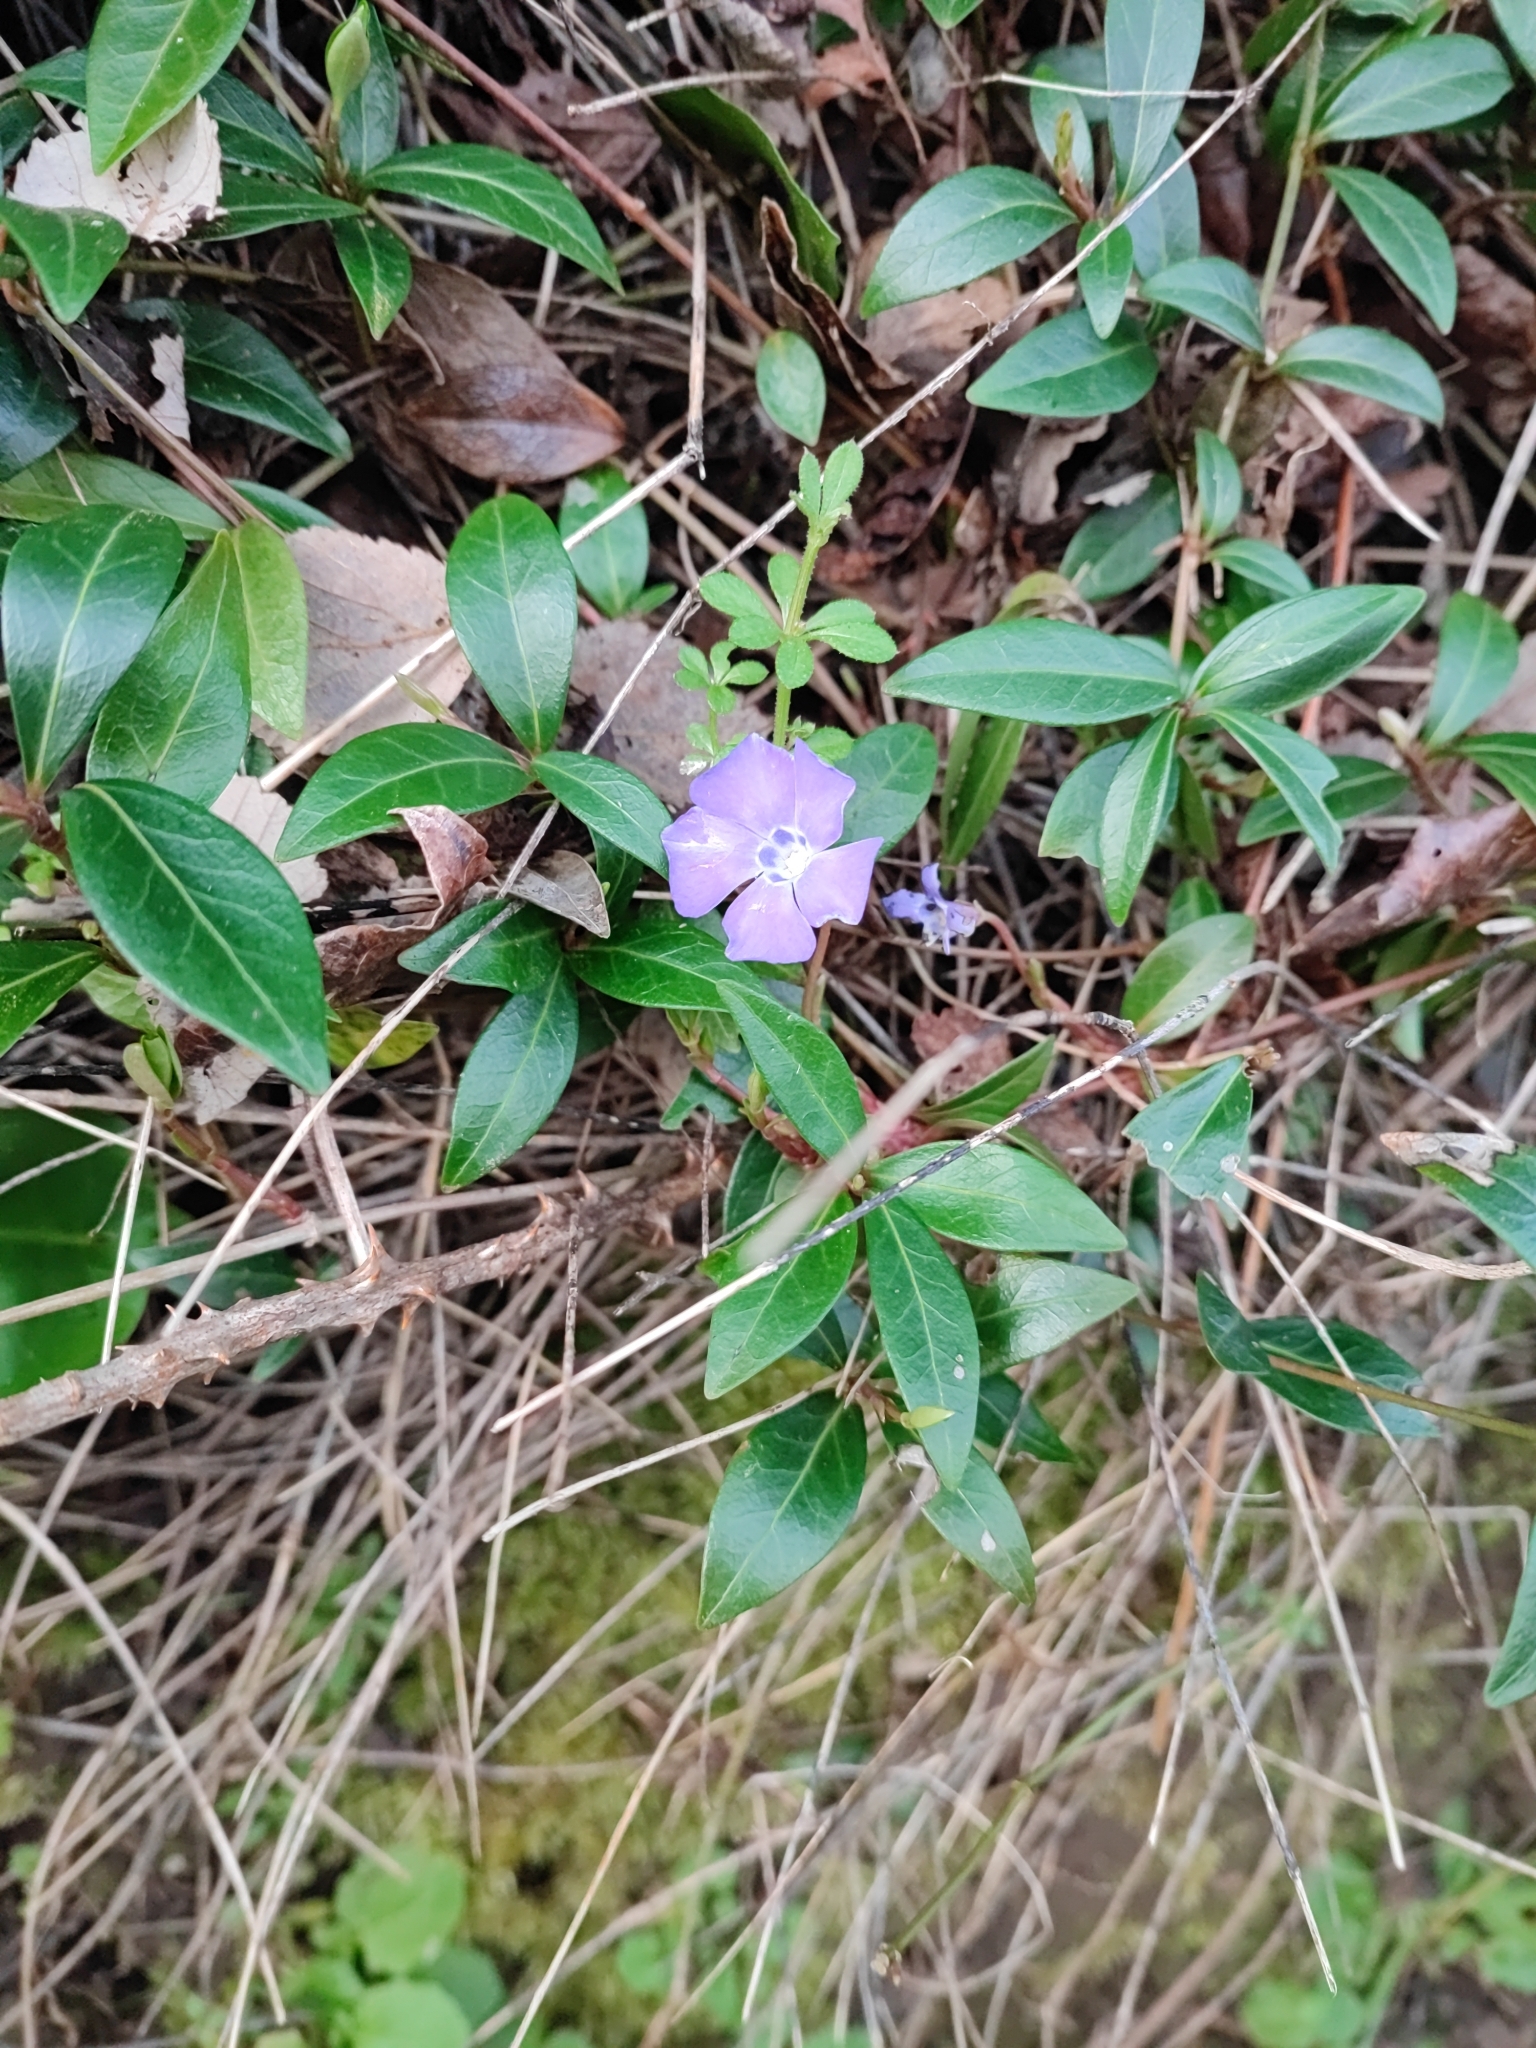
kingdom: Plantae
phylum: Tracheophyta
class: Magnoliopsida
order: Gentianales
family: Apocynaceae
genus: Vinca
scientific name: Vinca minor
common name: Lesser periwinkle
